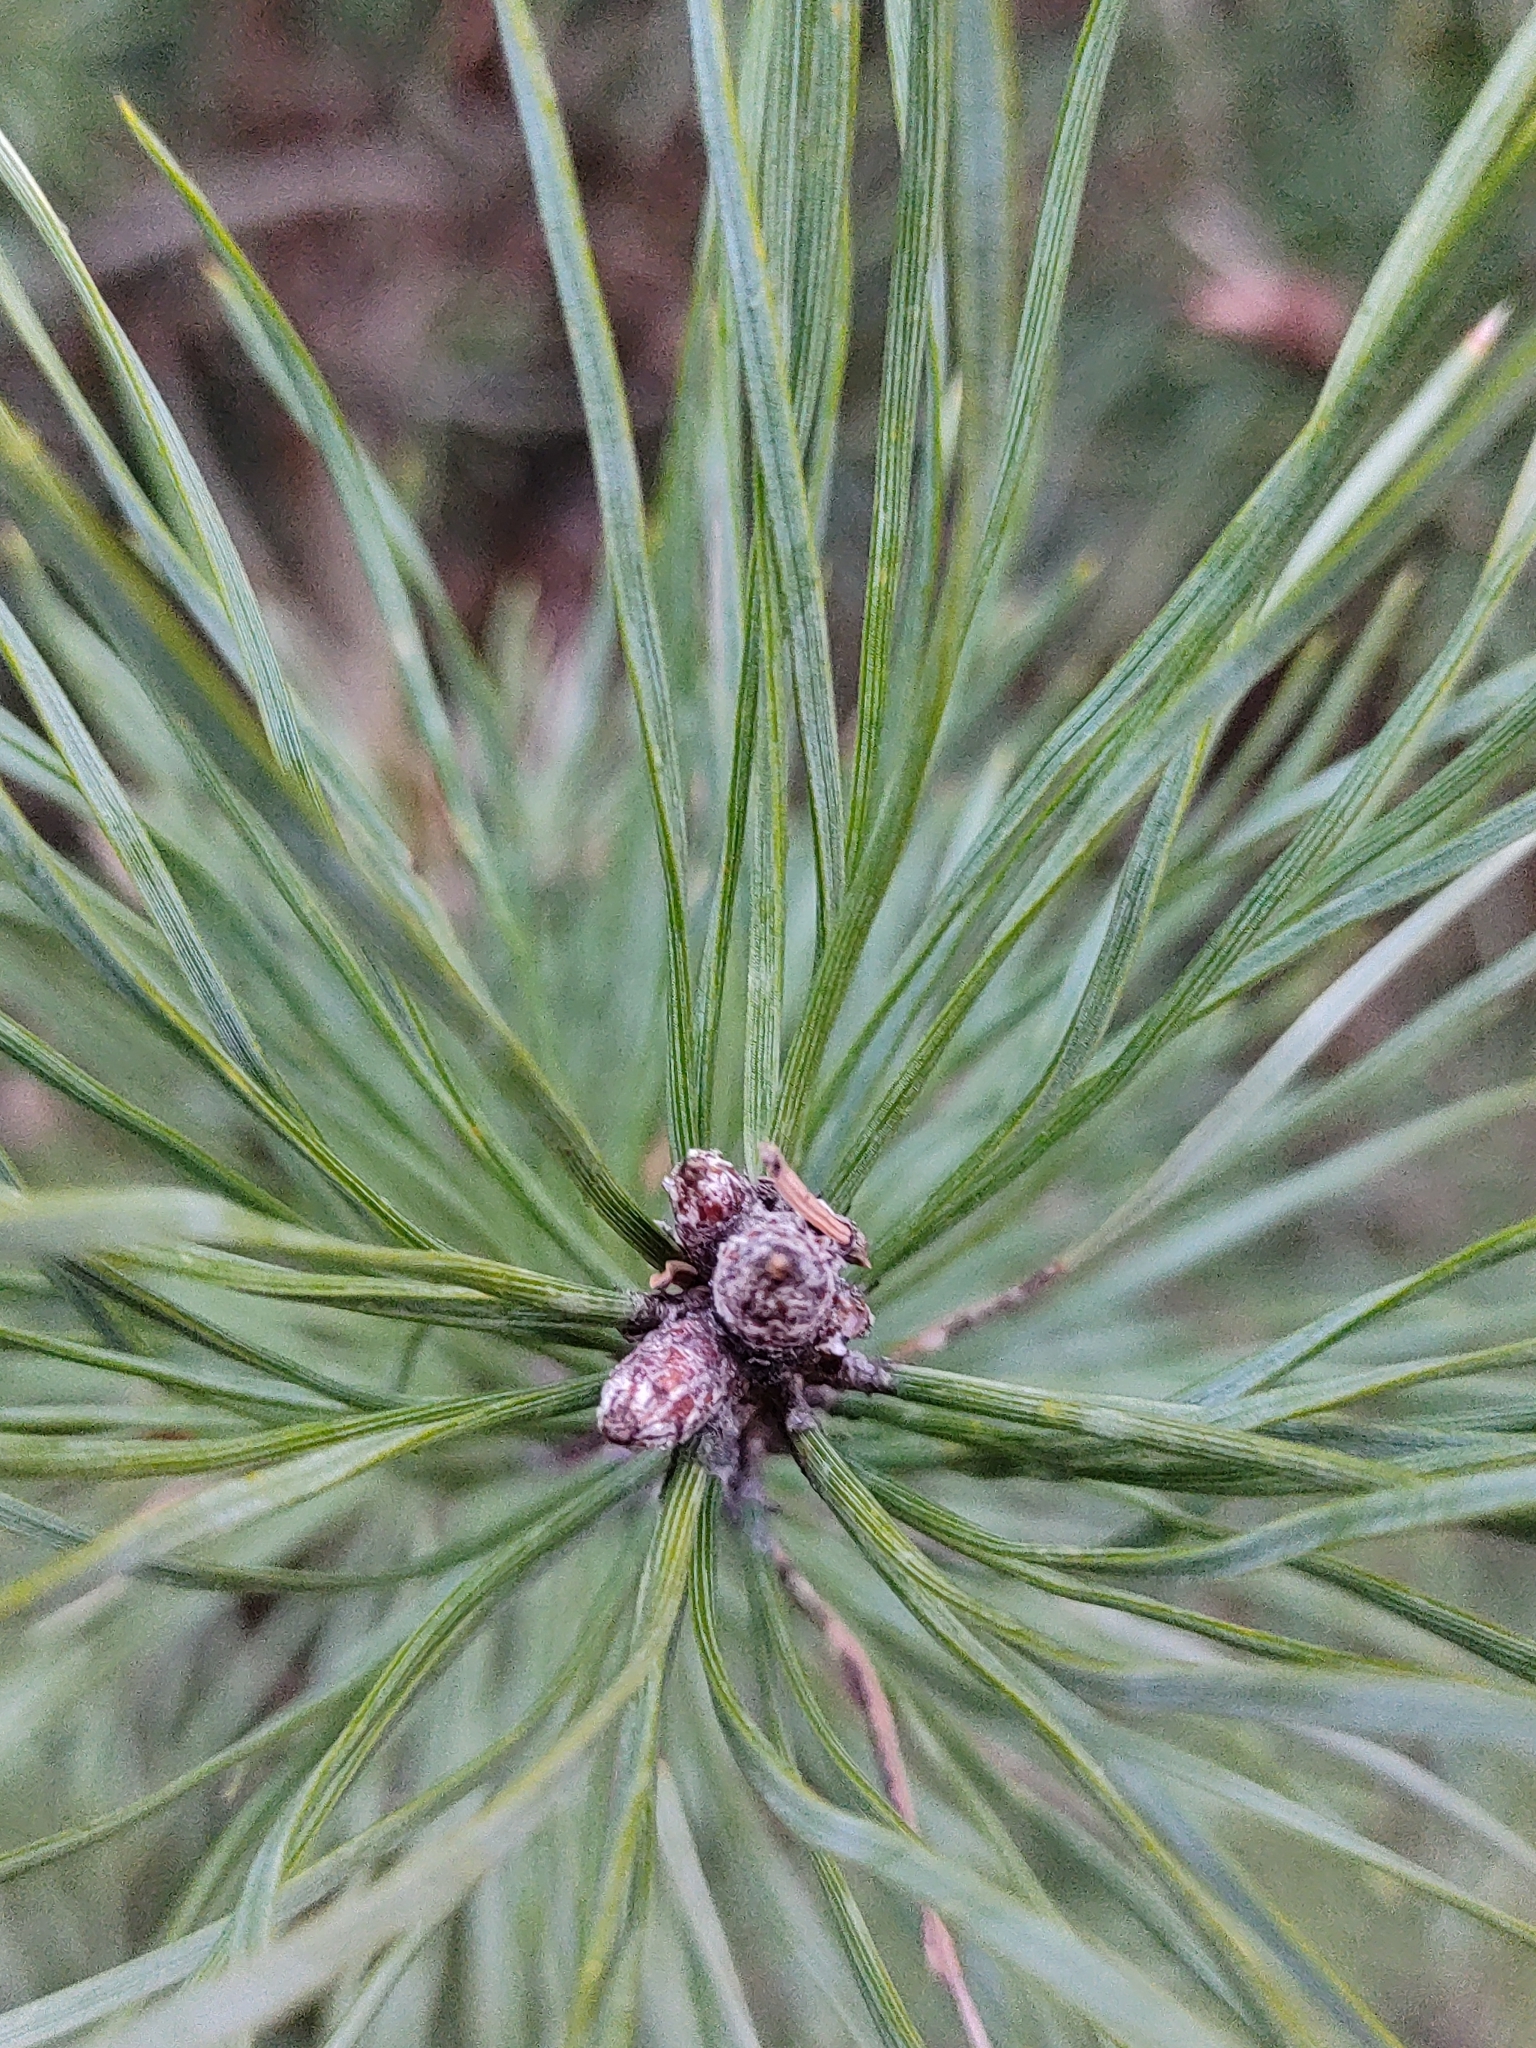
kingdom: Plantae
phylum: Tracheophyta
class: Pinopsida
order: Pinales
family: Pinaceae
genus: Pinus
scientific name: Pinus sylvestris
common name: Scots pine
